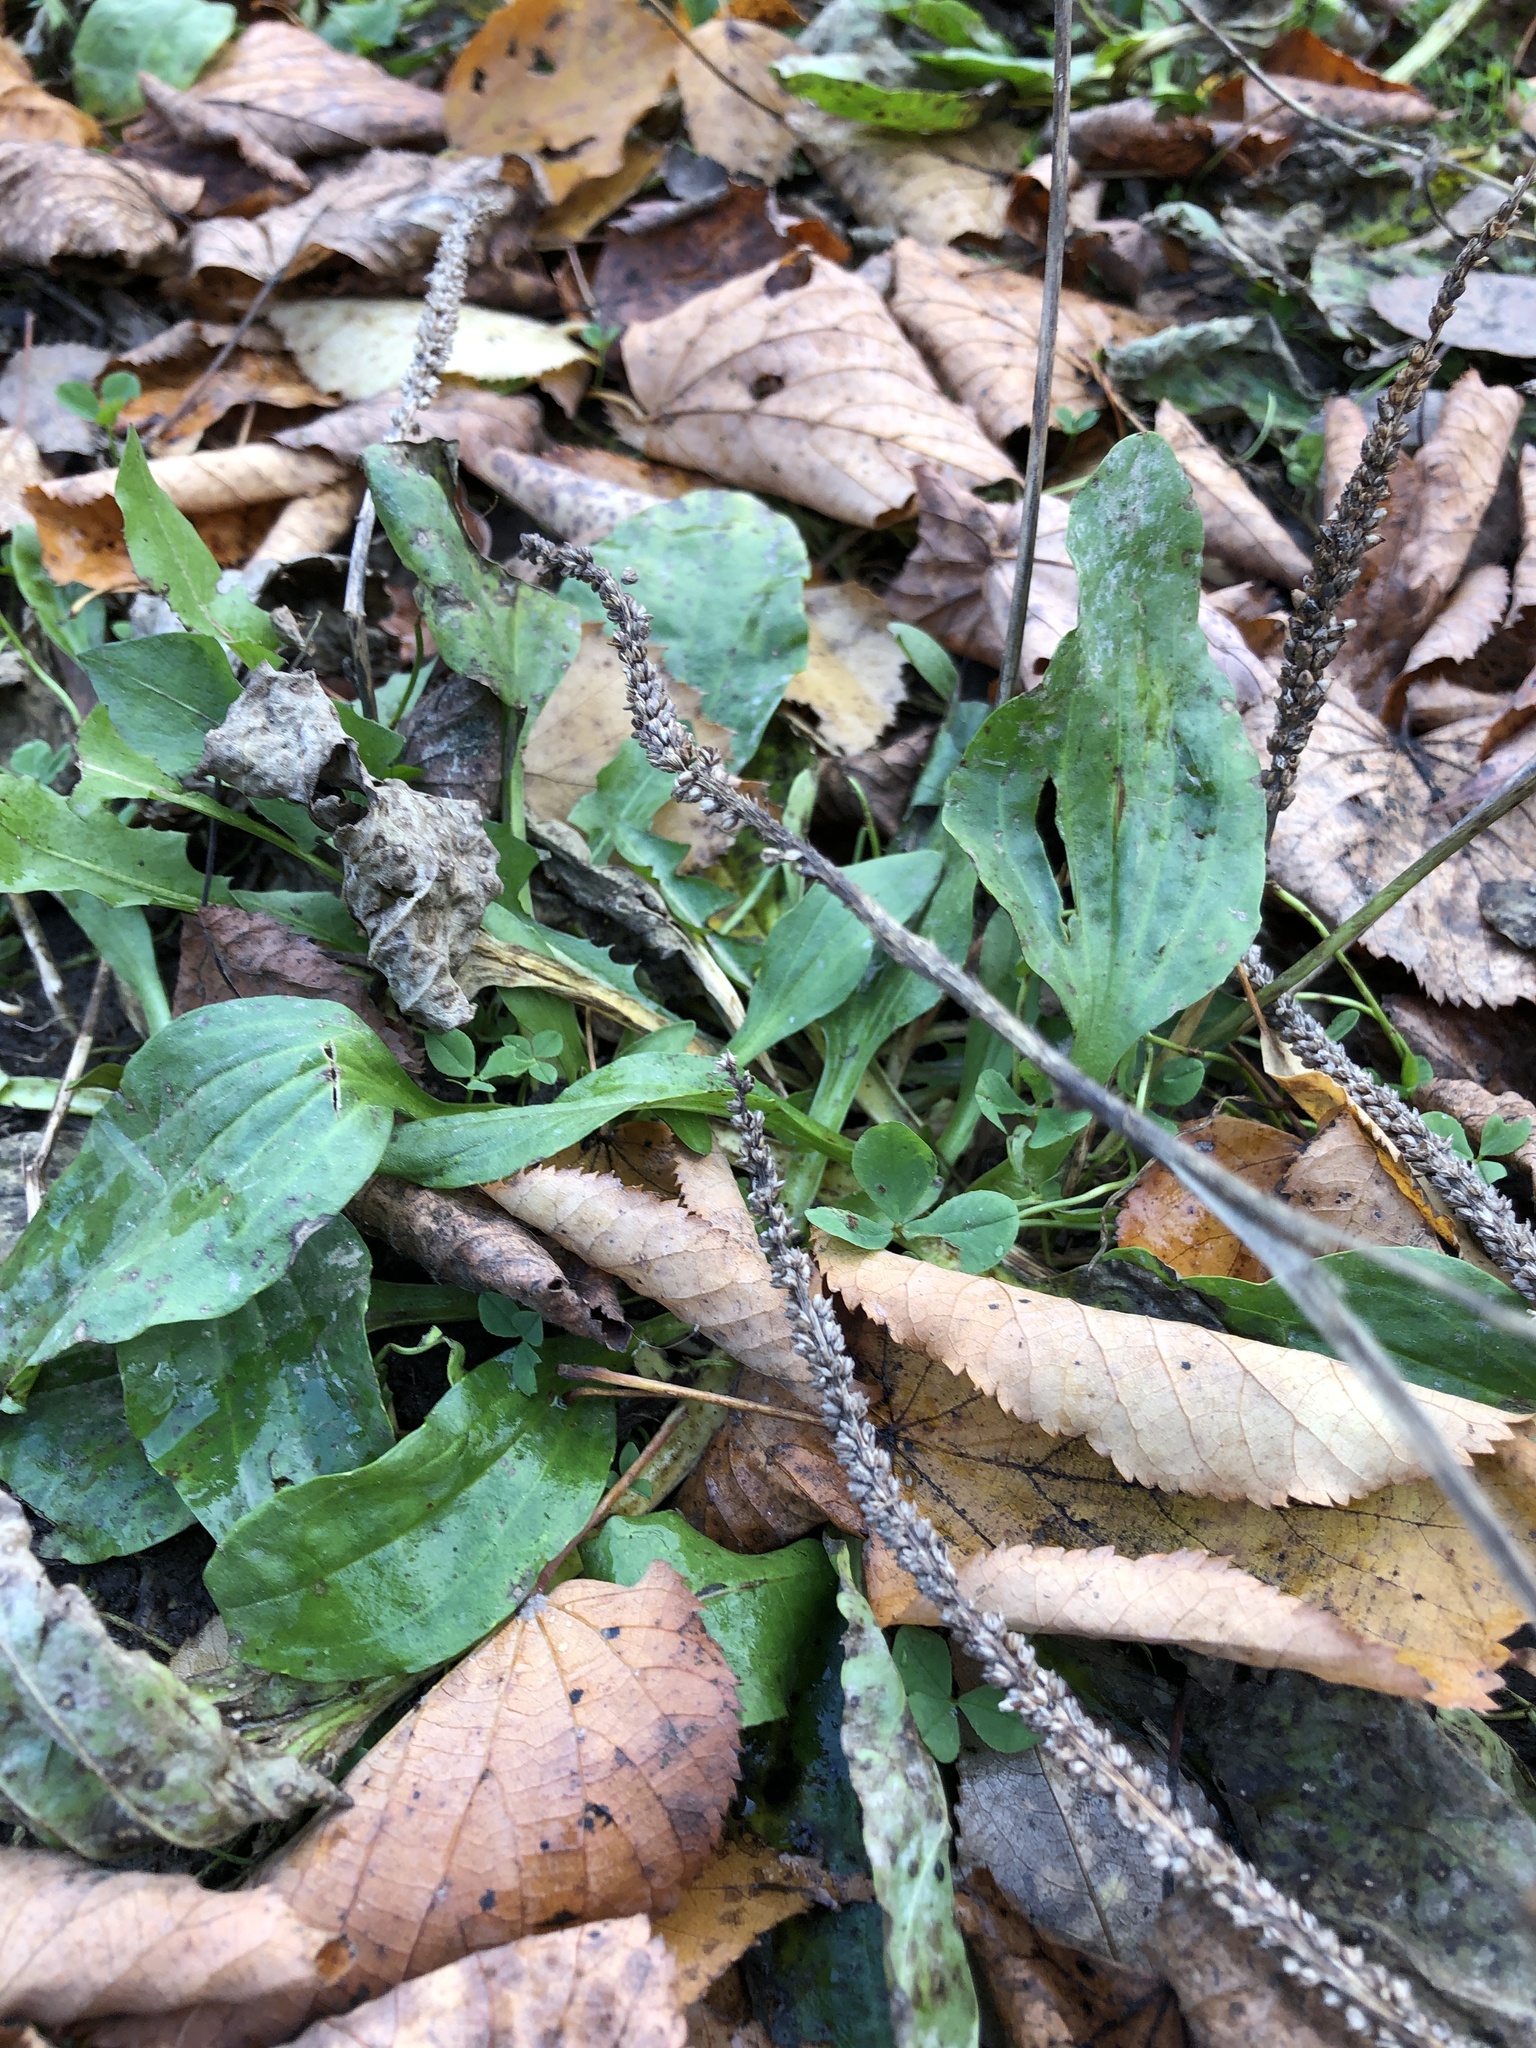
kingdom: Plantae
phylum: Tracheophyta
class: Magnoliopsida
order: Lamiales
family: Plantaginaceae
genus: Plantago
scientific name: Plantago major
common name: Common plantain
